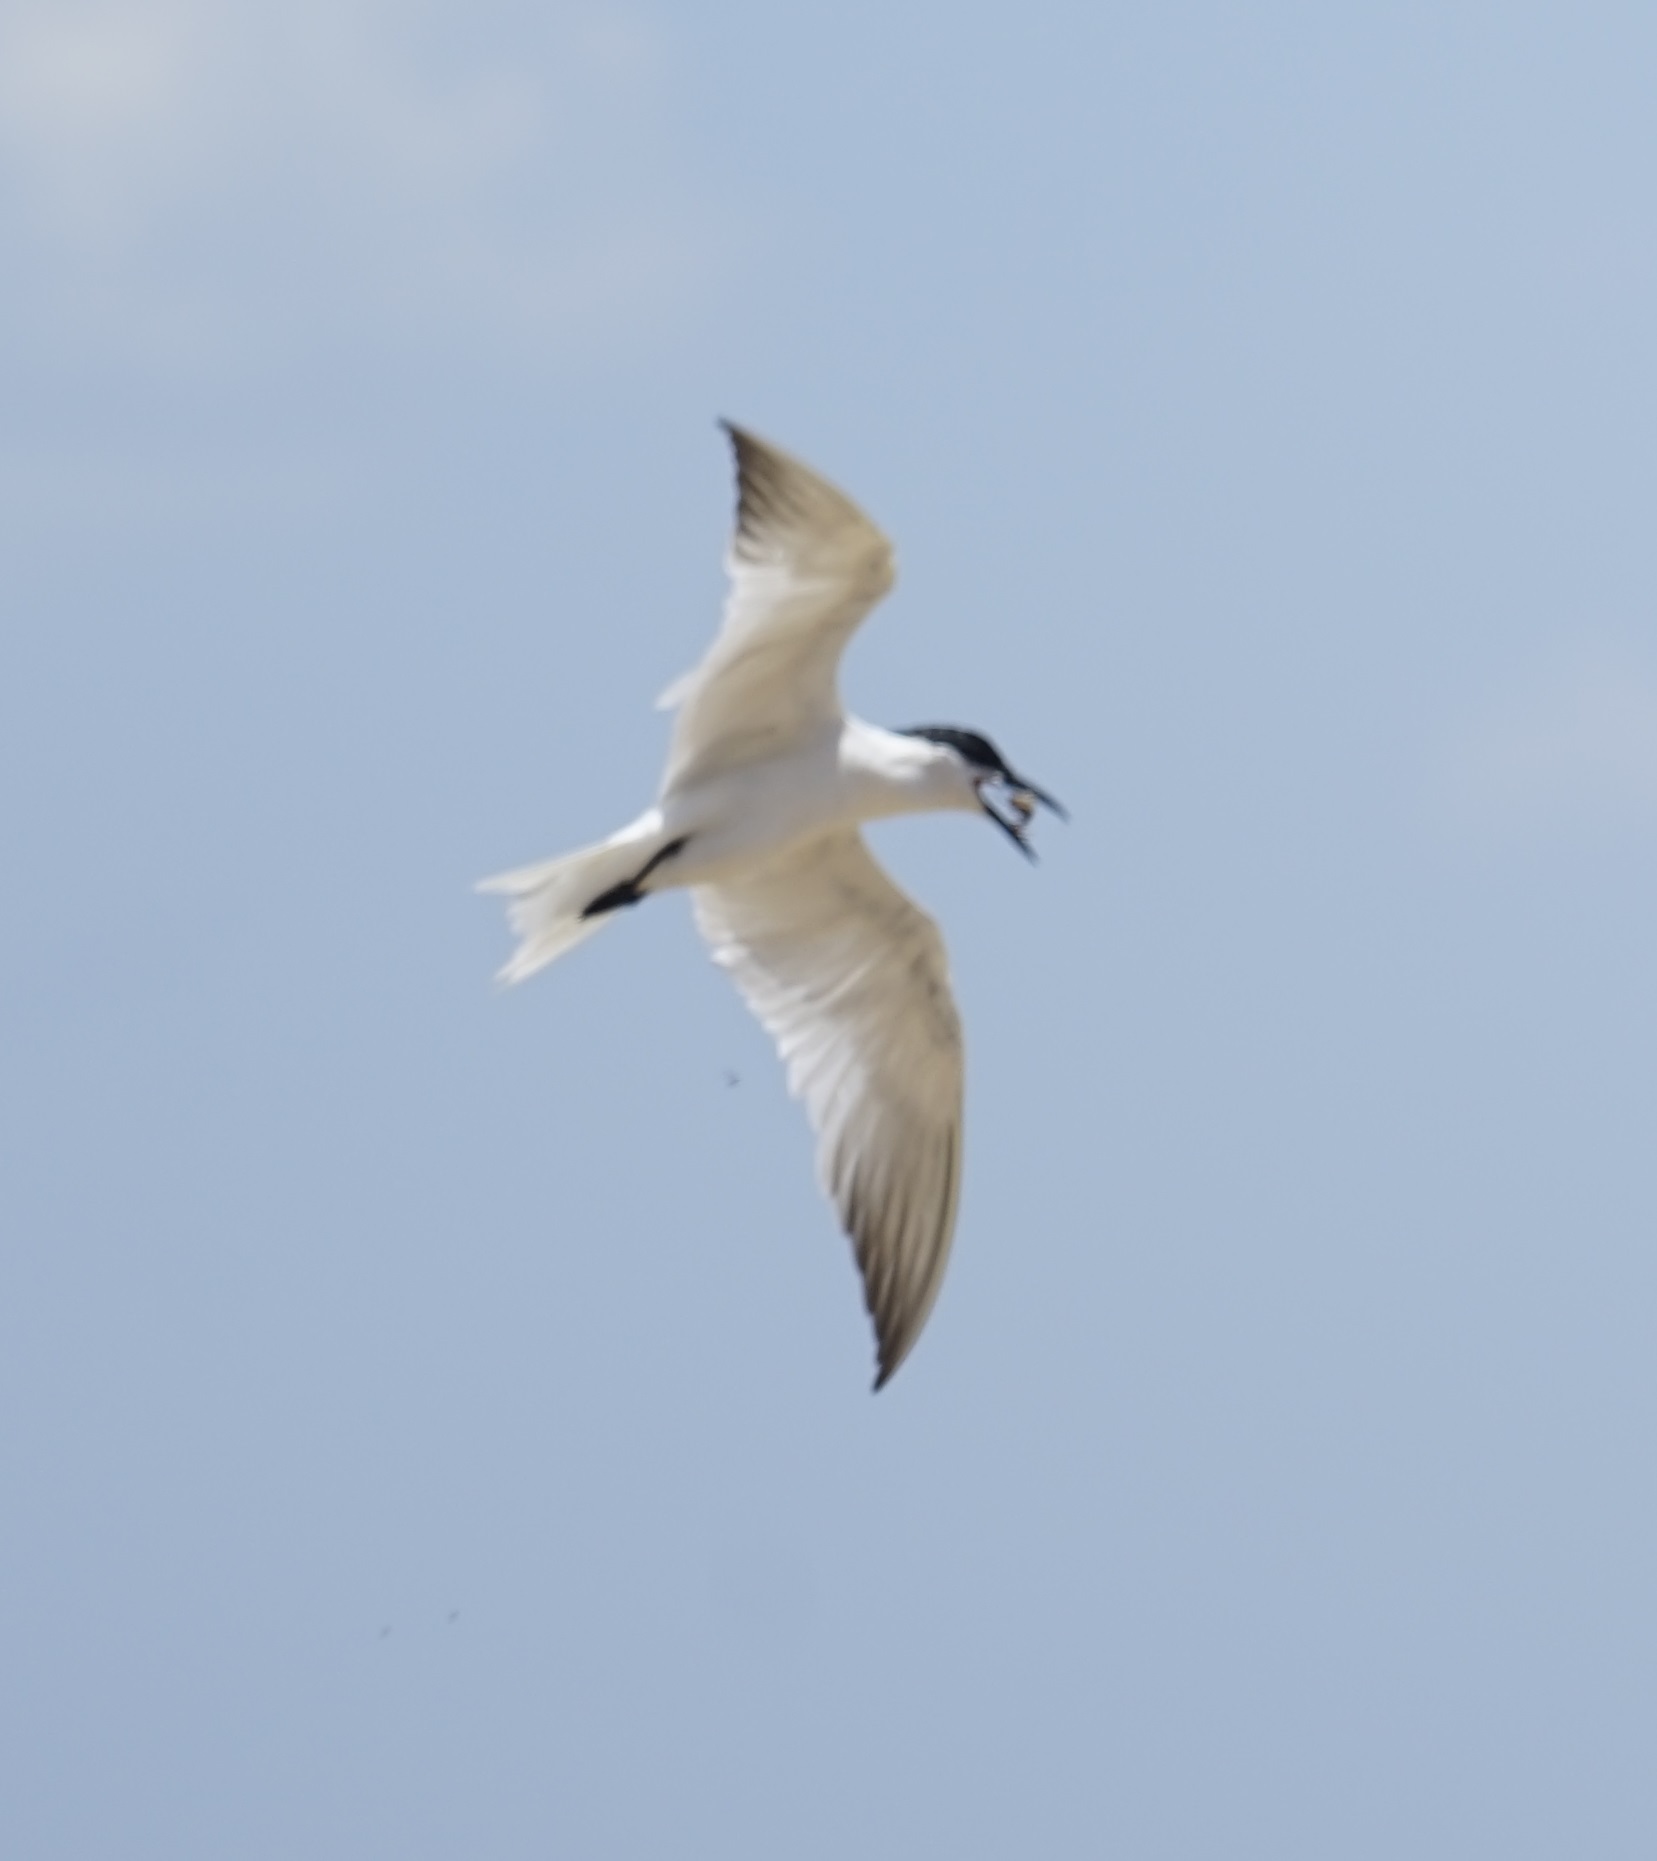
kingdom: Animalia
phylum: Chordata
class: Aves
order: Charadriiformes
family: Laridae
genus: Gelochelidon
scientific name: Gelochelidon macrotarsa
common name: Australian tern
